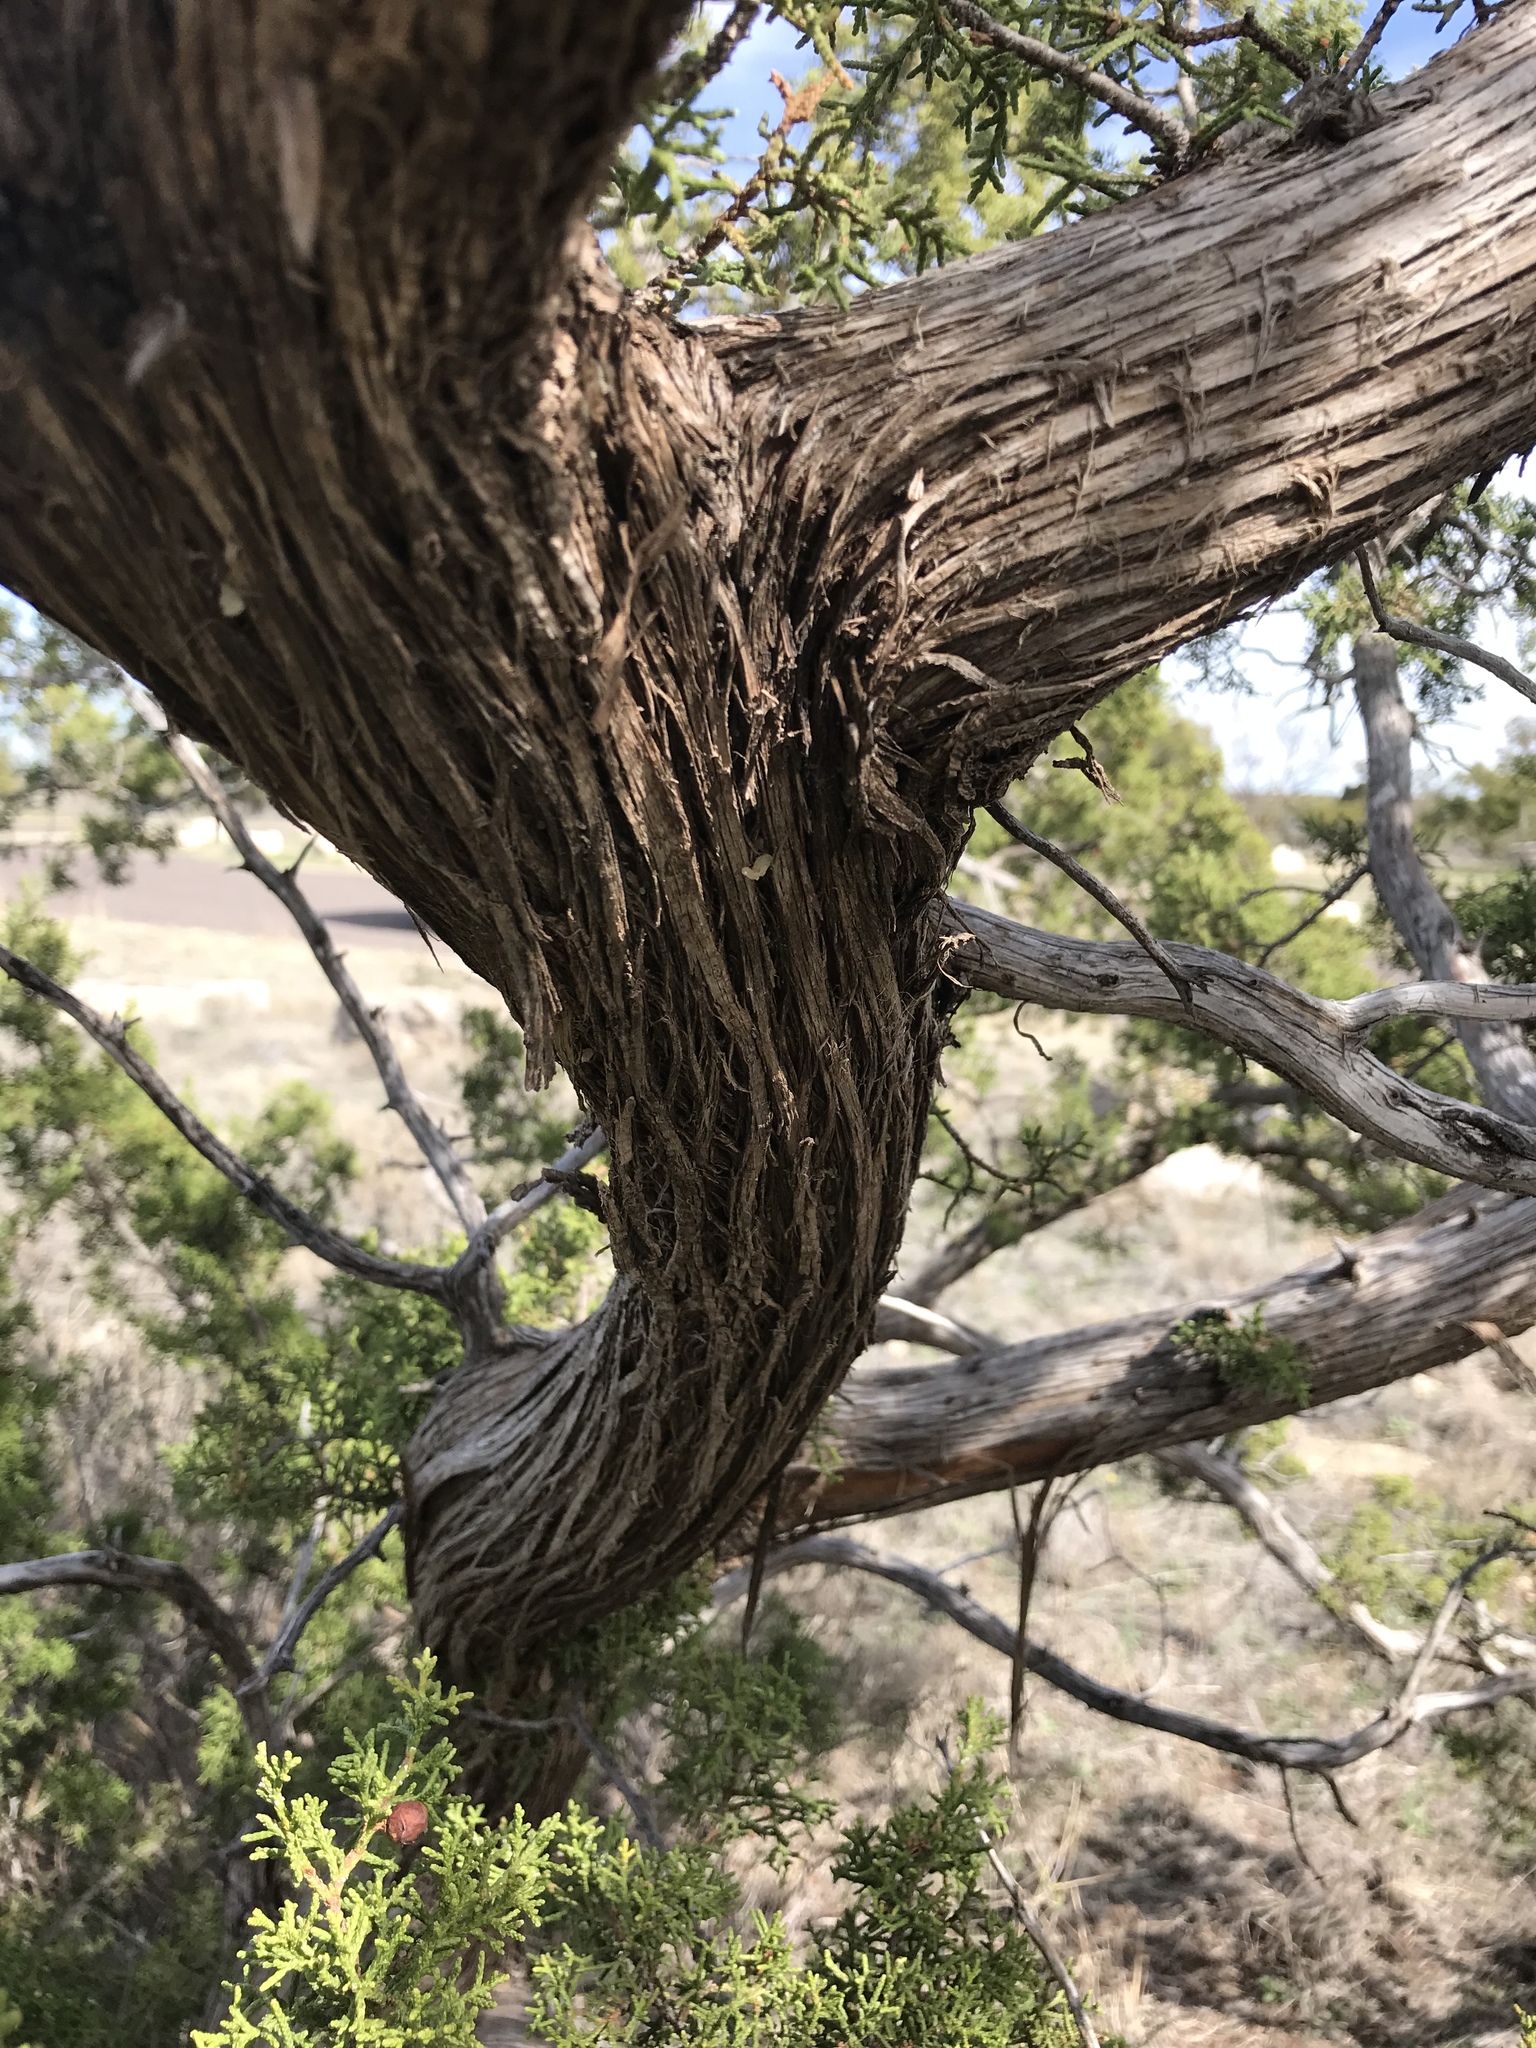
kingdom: Plantae
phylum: Tracheophyta
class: Pinopsida
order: Pinales
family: Cupressaceae
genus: Juniperus
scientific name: Juniperus pinchotii
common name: Pinchot juniper
